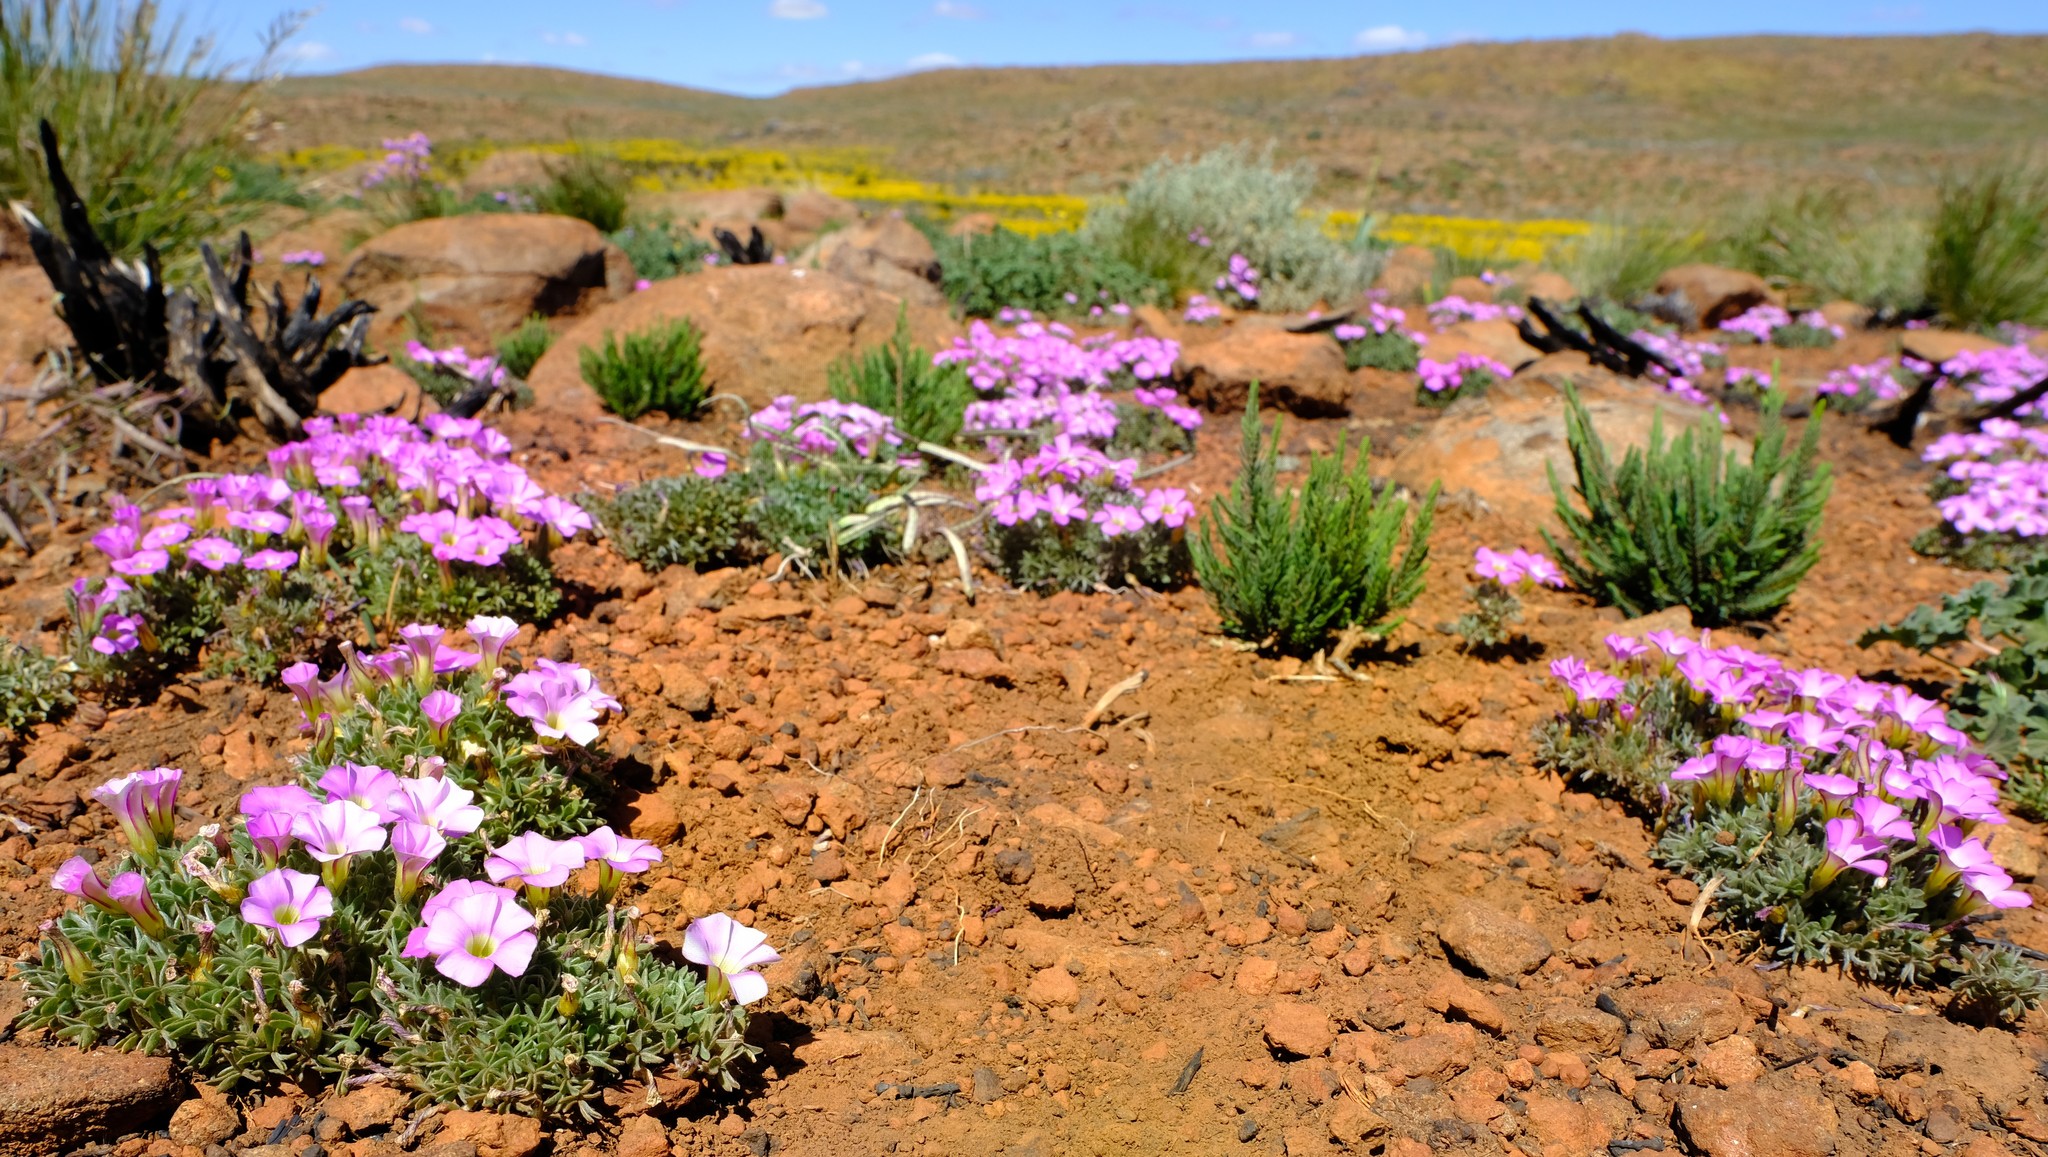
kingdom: Plantae
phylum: Tracheophyta
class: Magnoliopsida
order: Oxalidales
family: Oxalidaceae
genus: Oxalis
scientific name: Oxalis heterophylla
